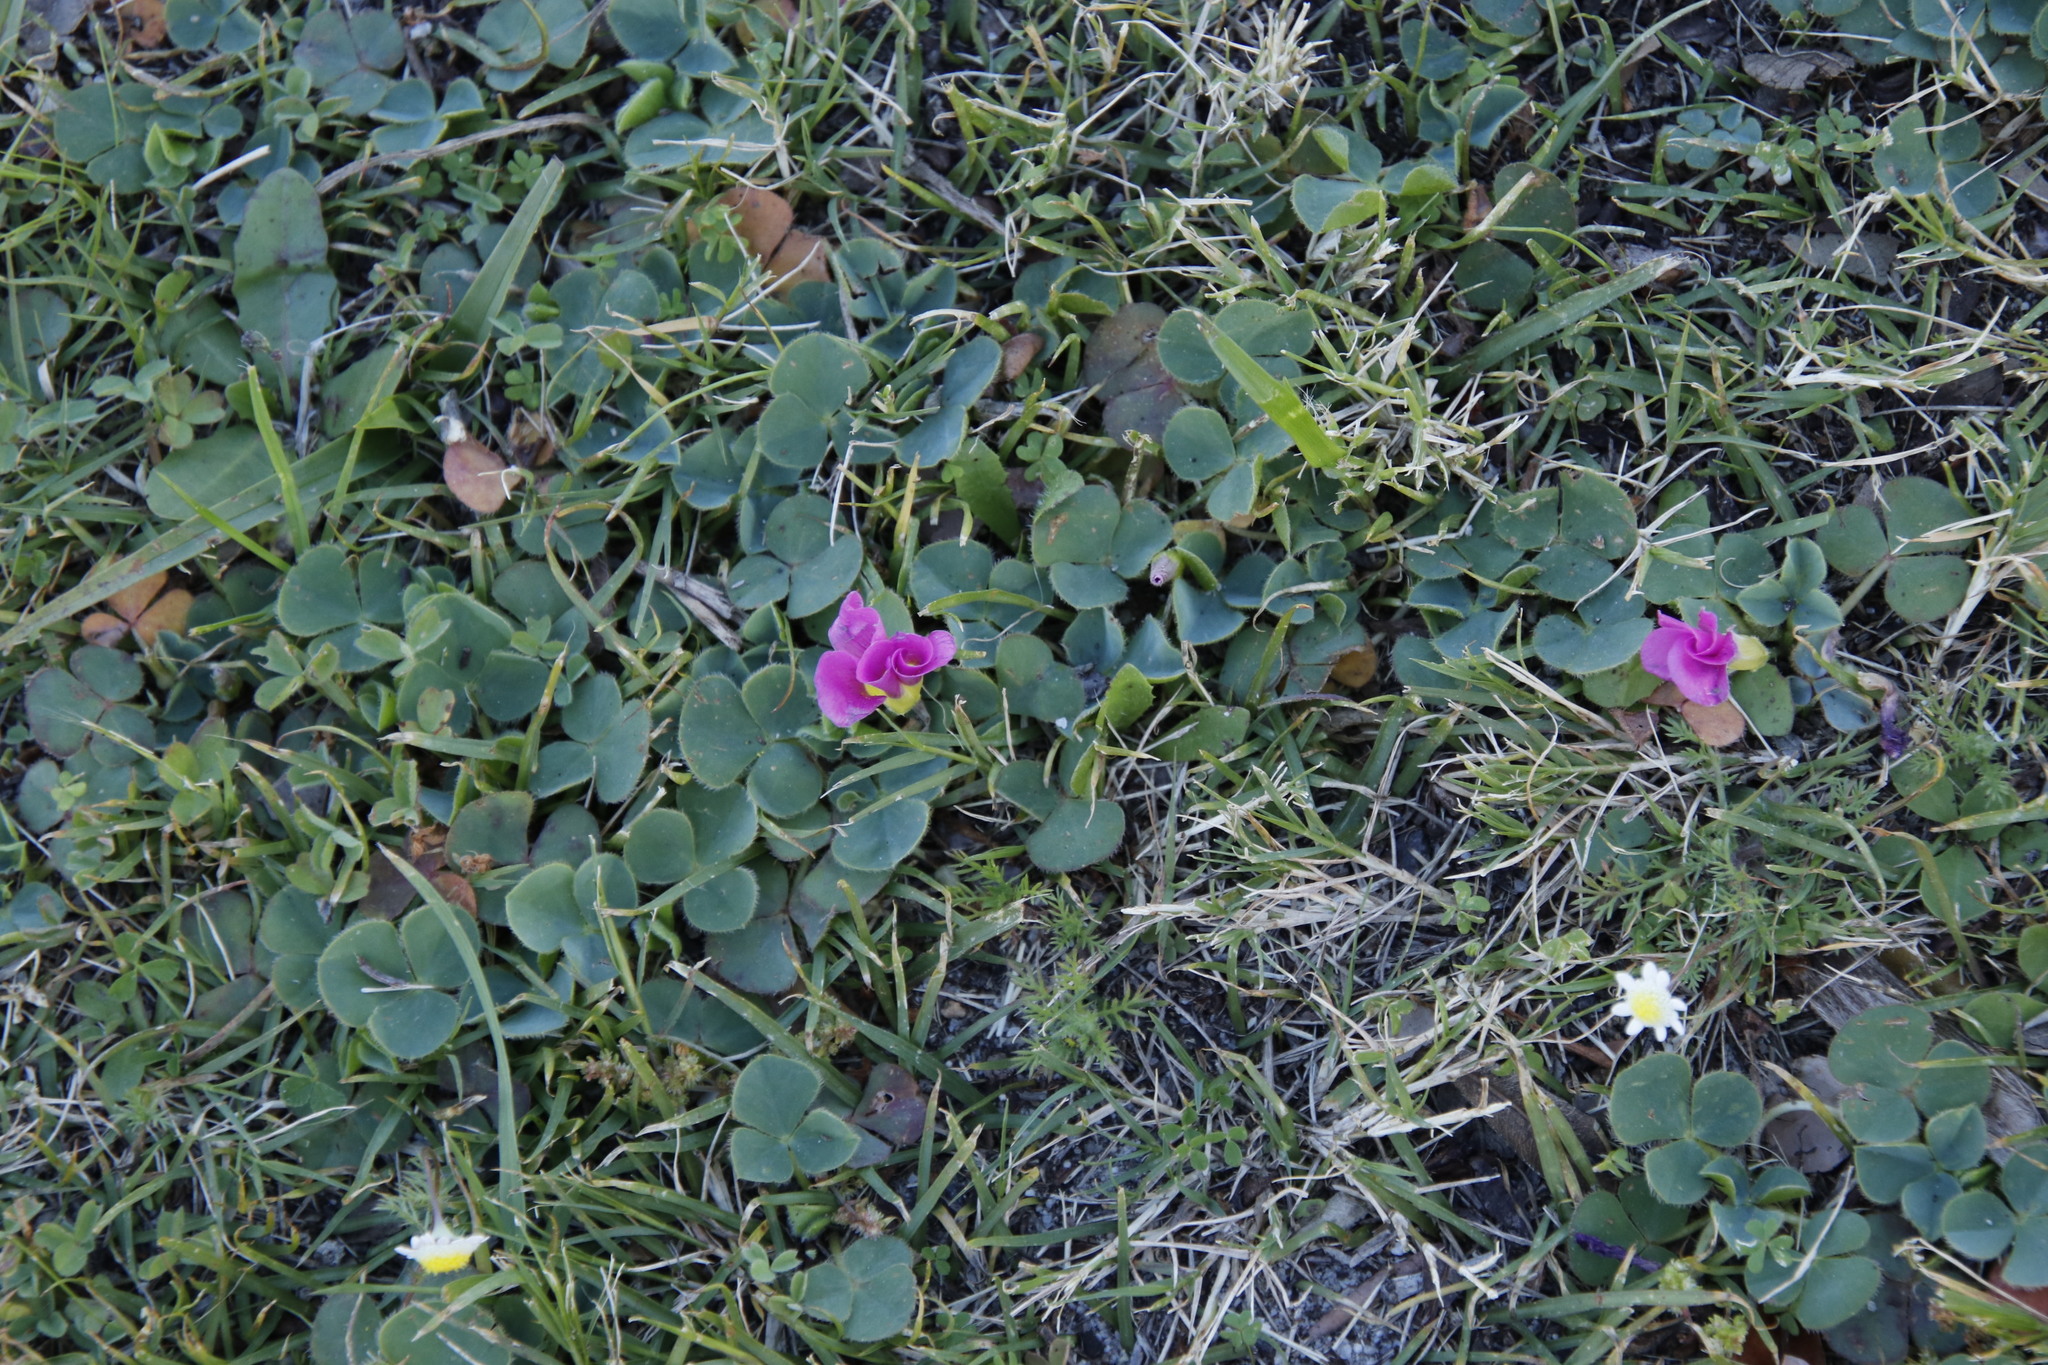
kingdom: Plantae
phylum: Tracheophyta
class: Magnoliopsida
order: Oxalidales
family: Oxalidaceae
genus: Oxalis
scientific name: Oxalis purpurea
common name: Purple woodsorrel
